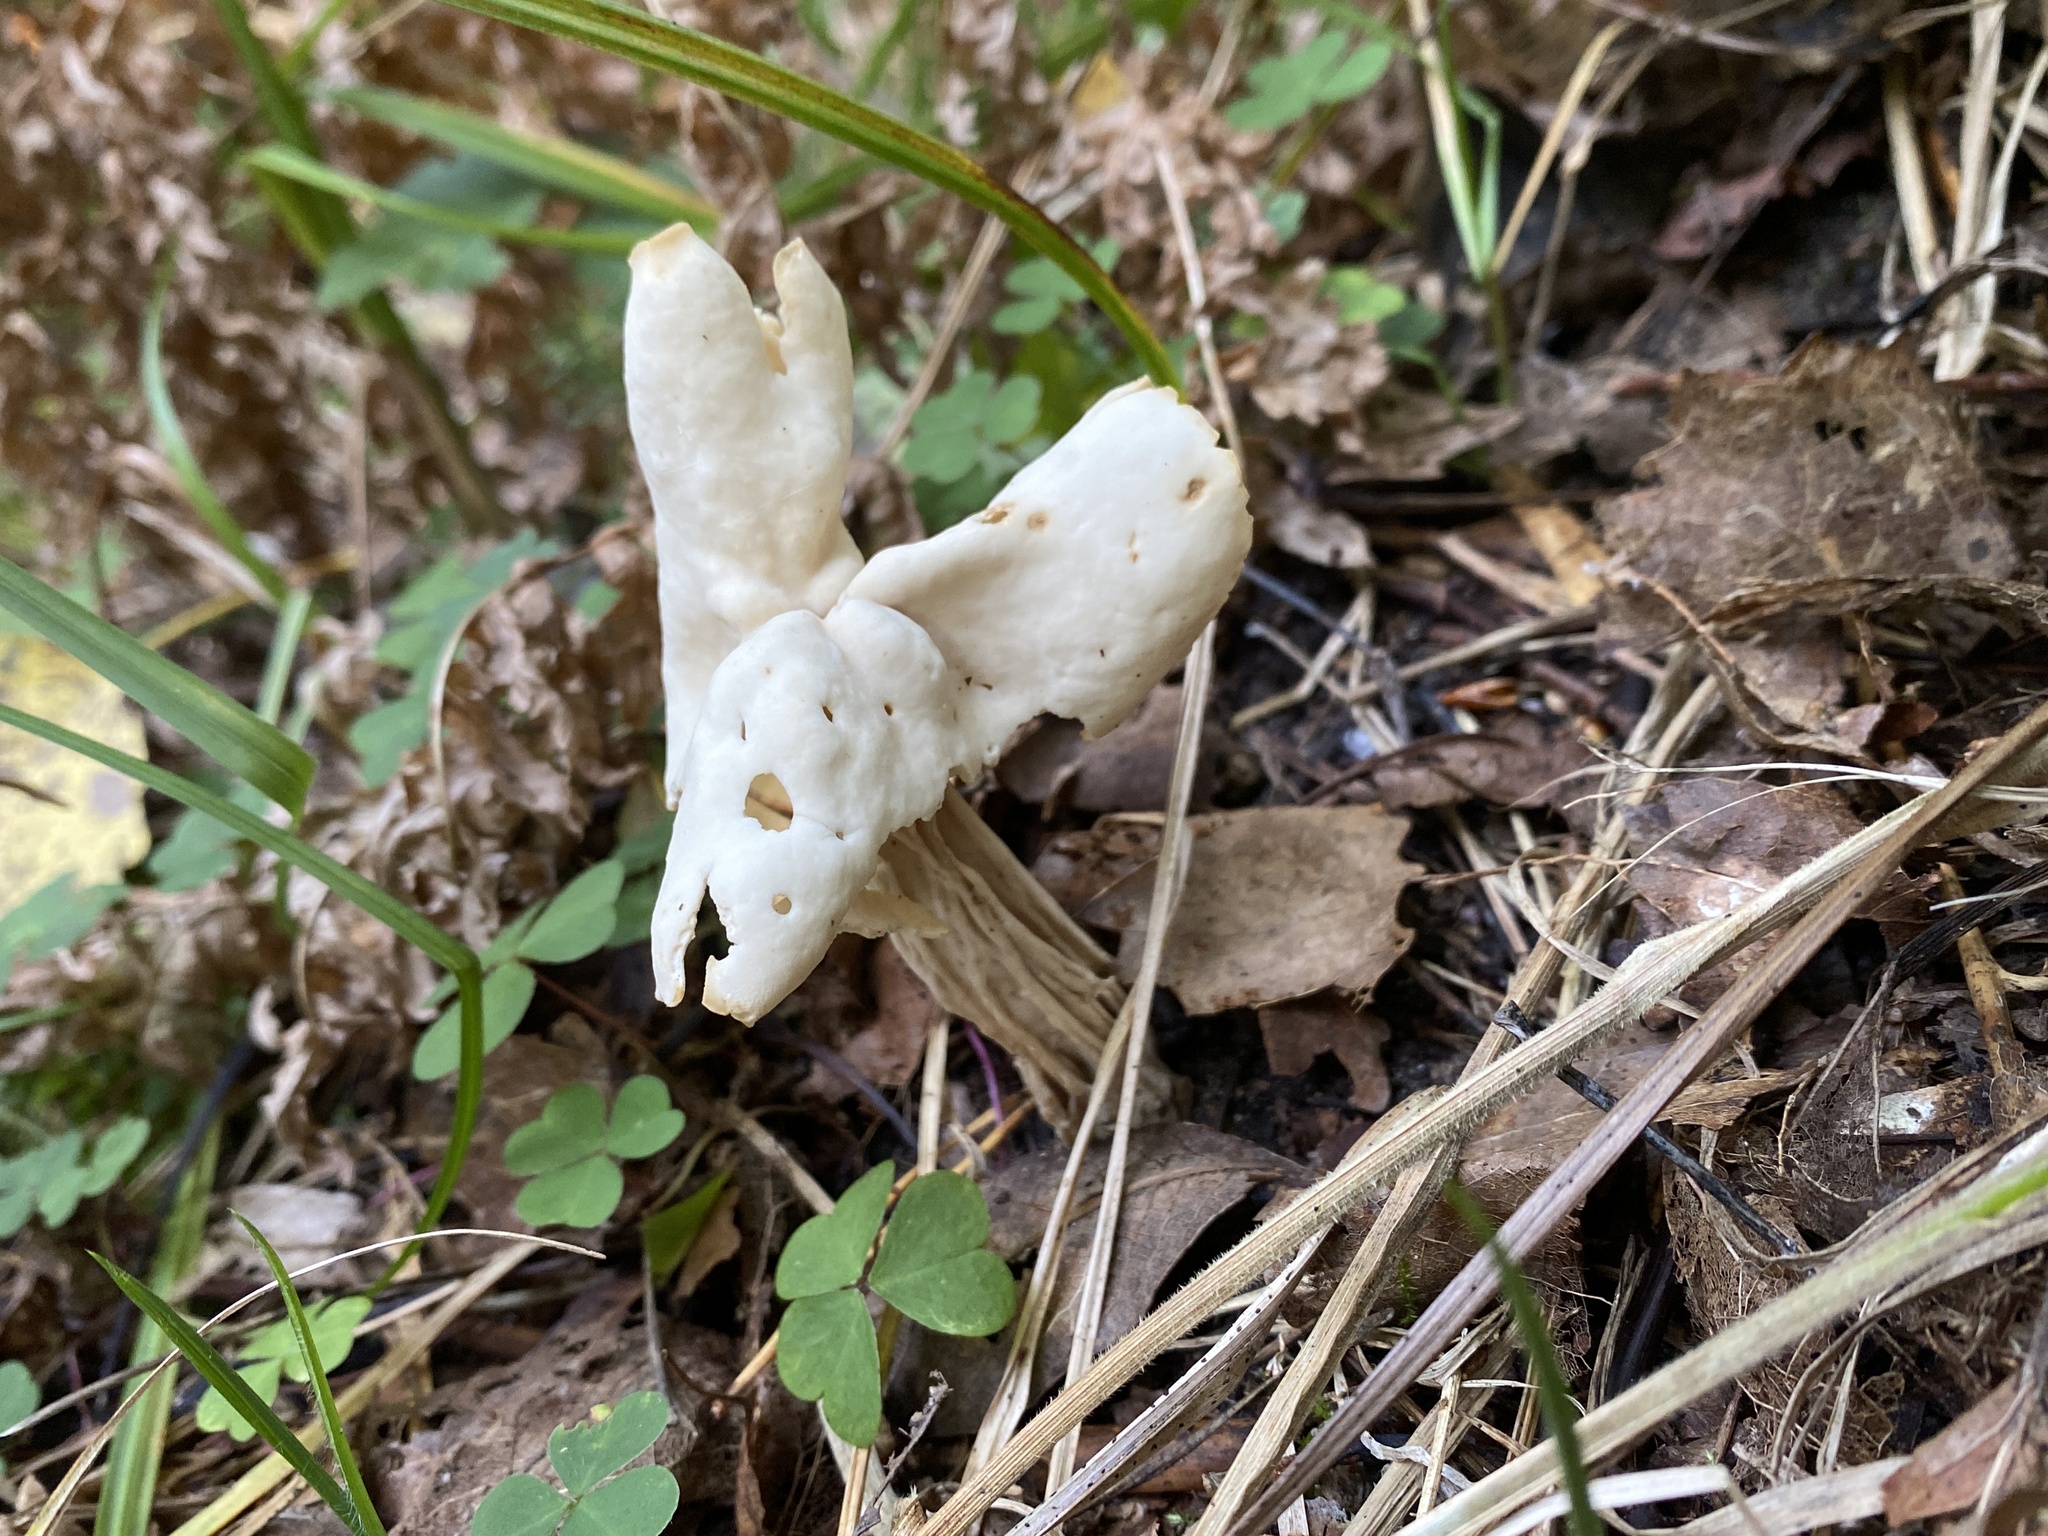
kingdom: Fungi
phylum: Ascomycota
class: Pezizomycetes
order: Pezizales
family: Helvellaceae
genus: Helvella
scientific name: Helvella crispa
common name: White saddle
